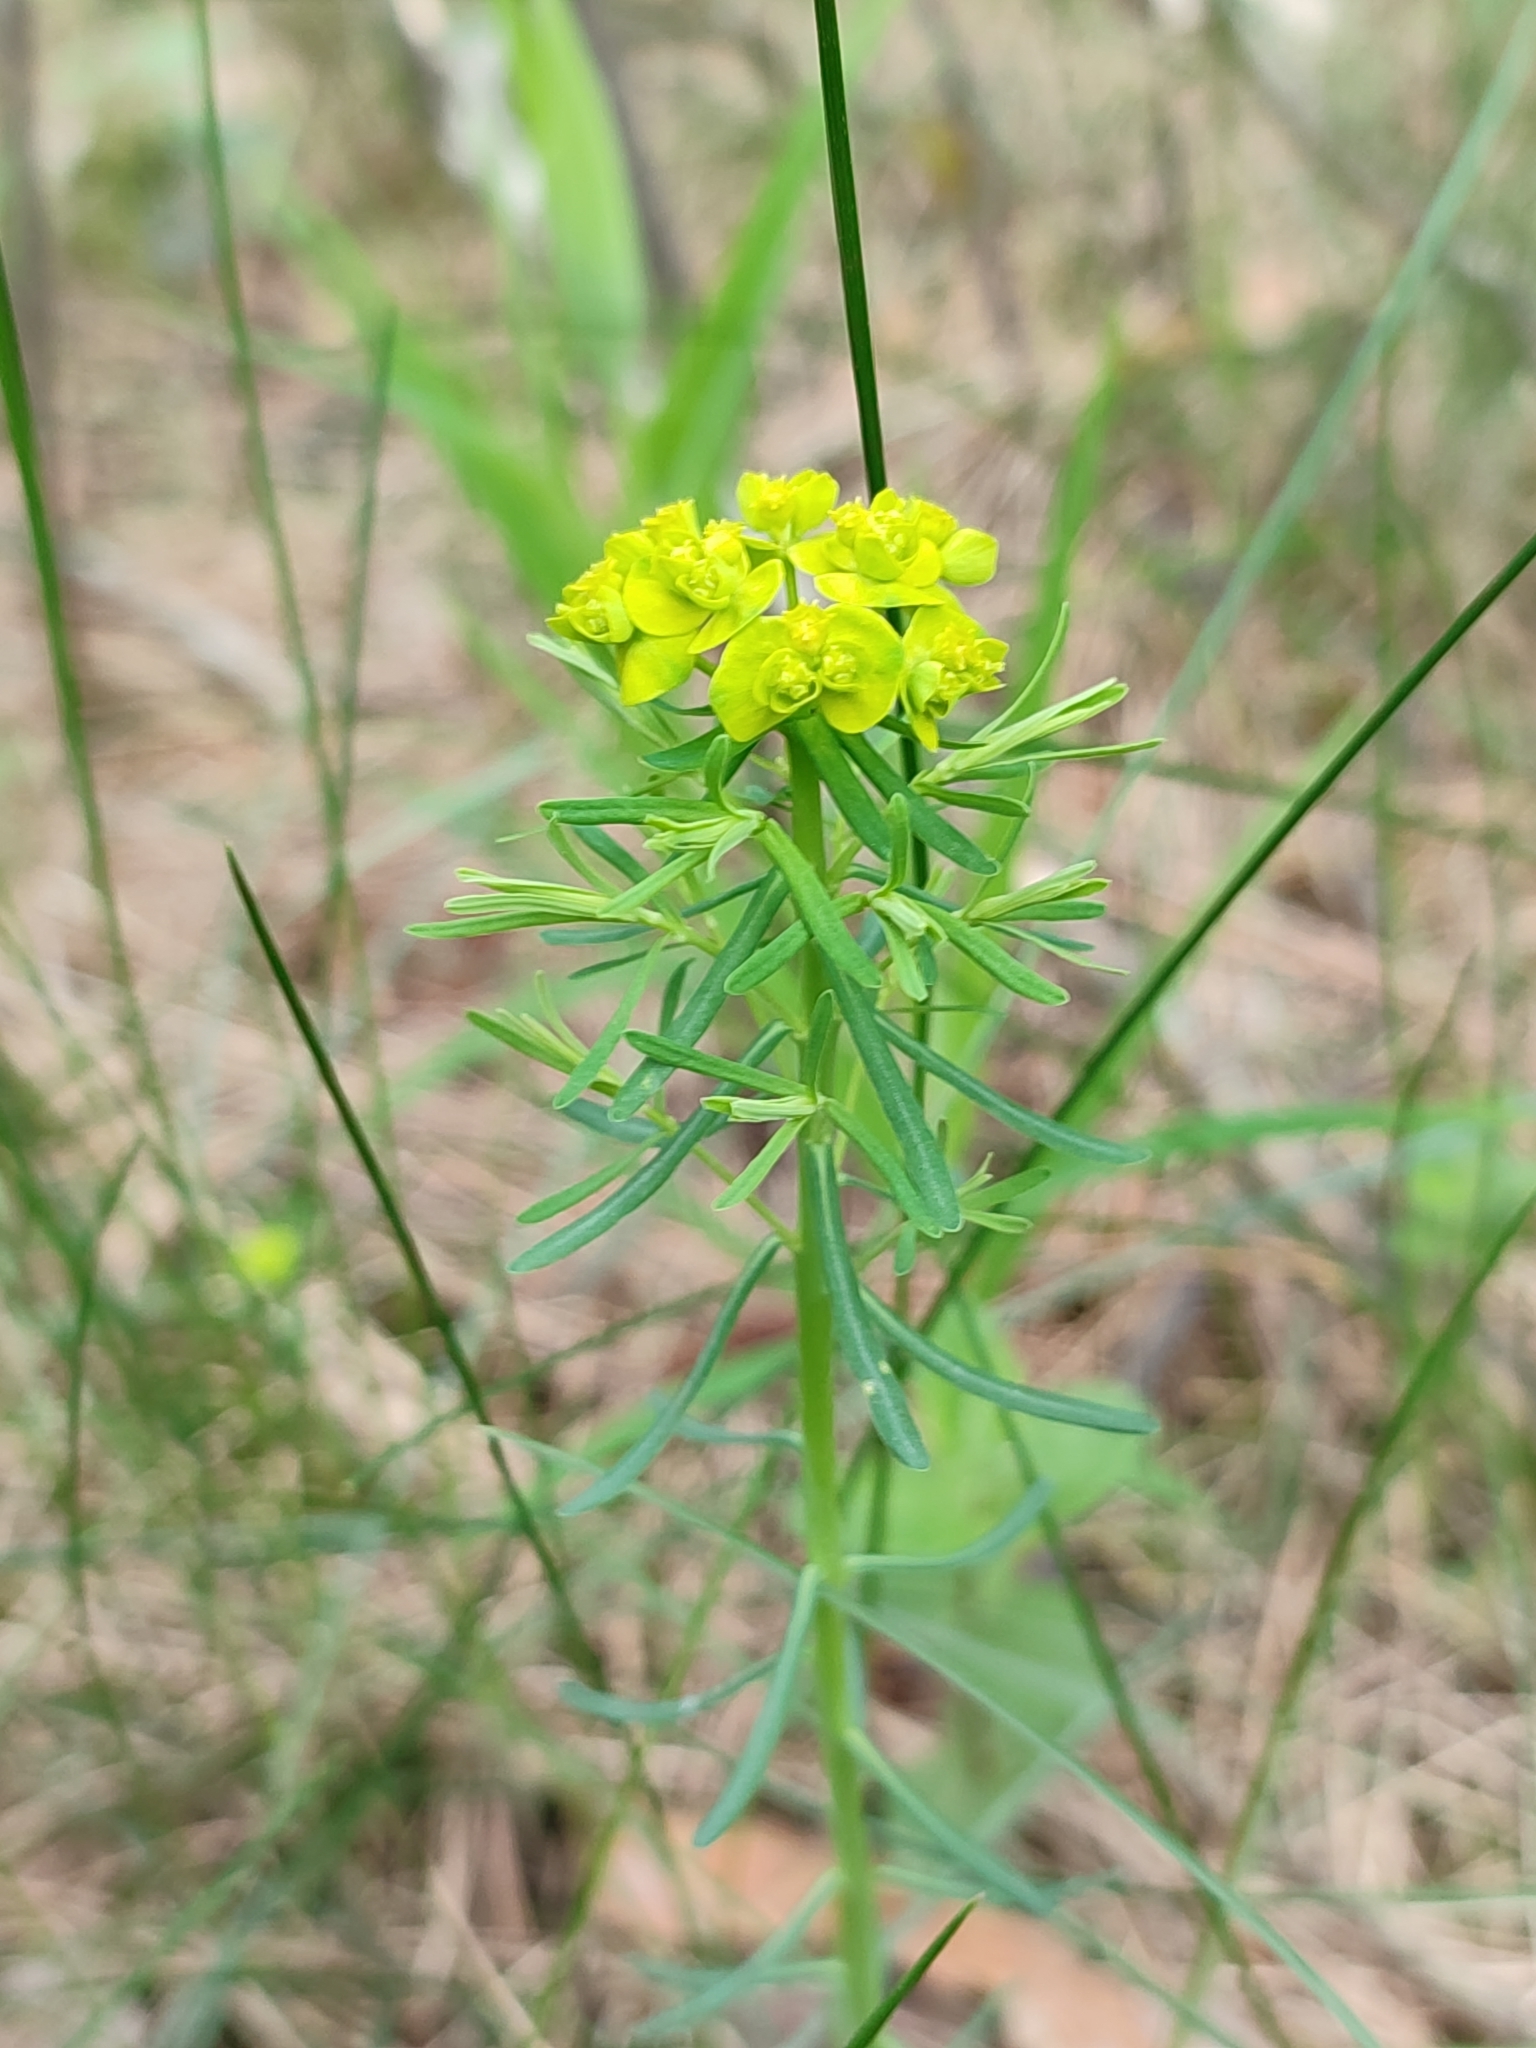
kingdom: Plantae
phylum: Tracheophyta
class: Magnoliopsida
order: Malpighiales
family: Euphorbiaceae
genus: Euphorbia
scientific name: Euphorbia cyparissias
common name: Cypress spurge
